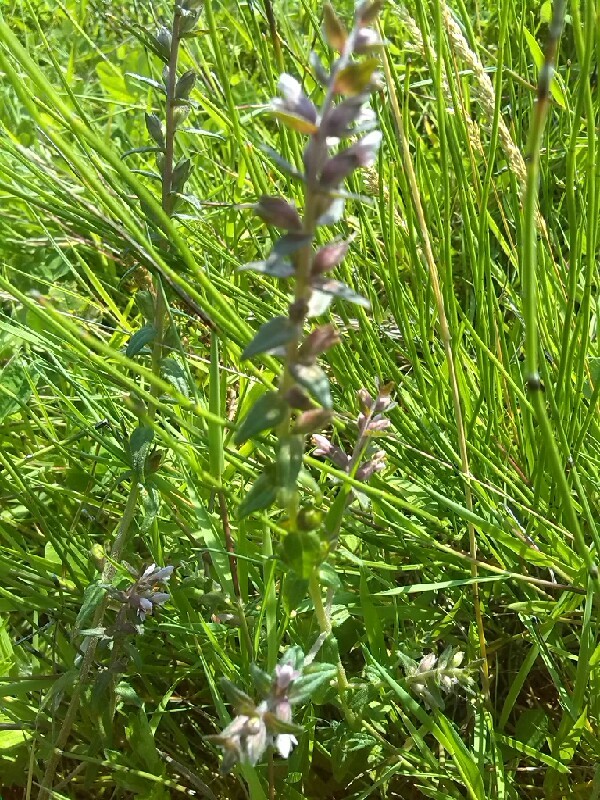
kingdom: Plantae
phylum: Tracheophyta
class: Magnoliopsida
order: Lamiales
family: Orobanchaceae
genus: Odontites
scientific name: Odontites vernus
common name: Red bartsia
